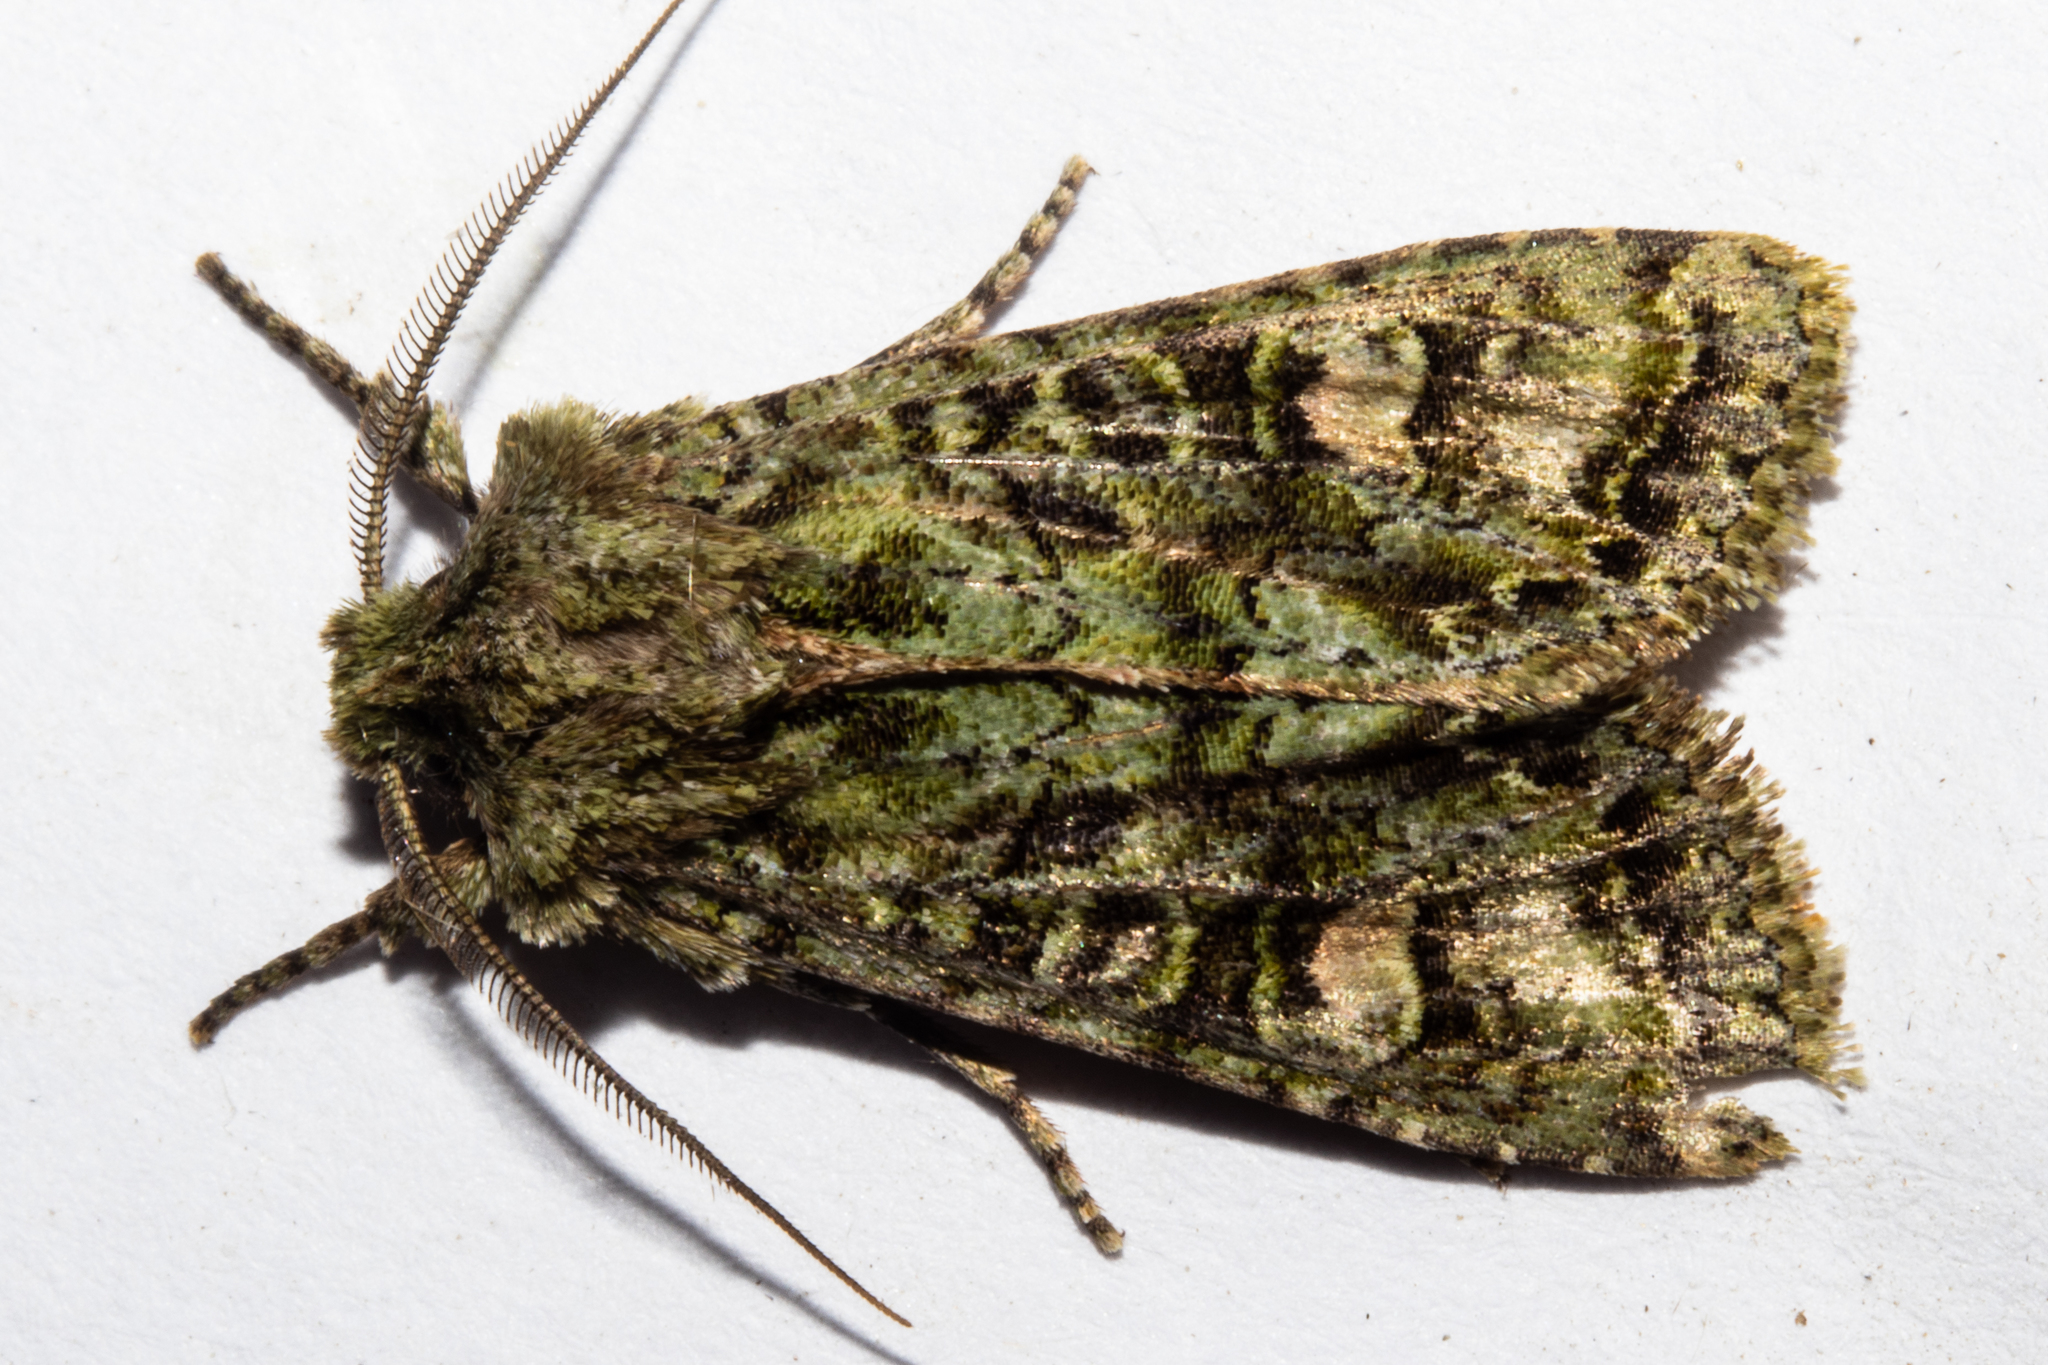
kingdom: Animalia
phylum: Arthropoda
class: Insecta
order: Lepidoptera
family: Noctuidae
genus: Ichneutica
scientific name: Ichneutica
